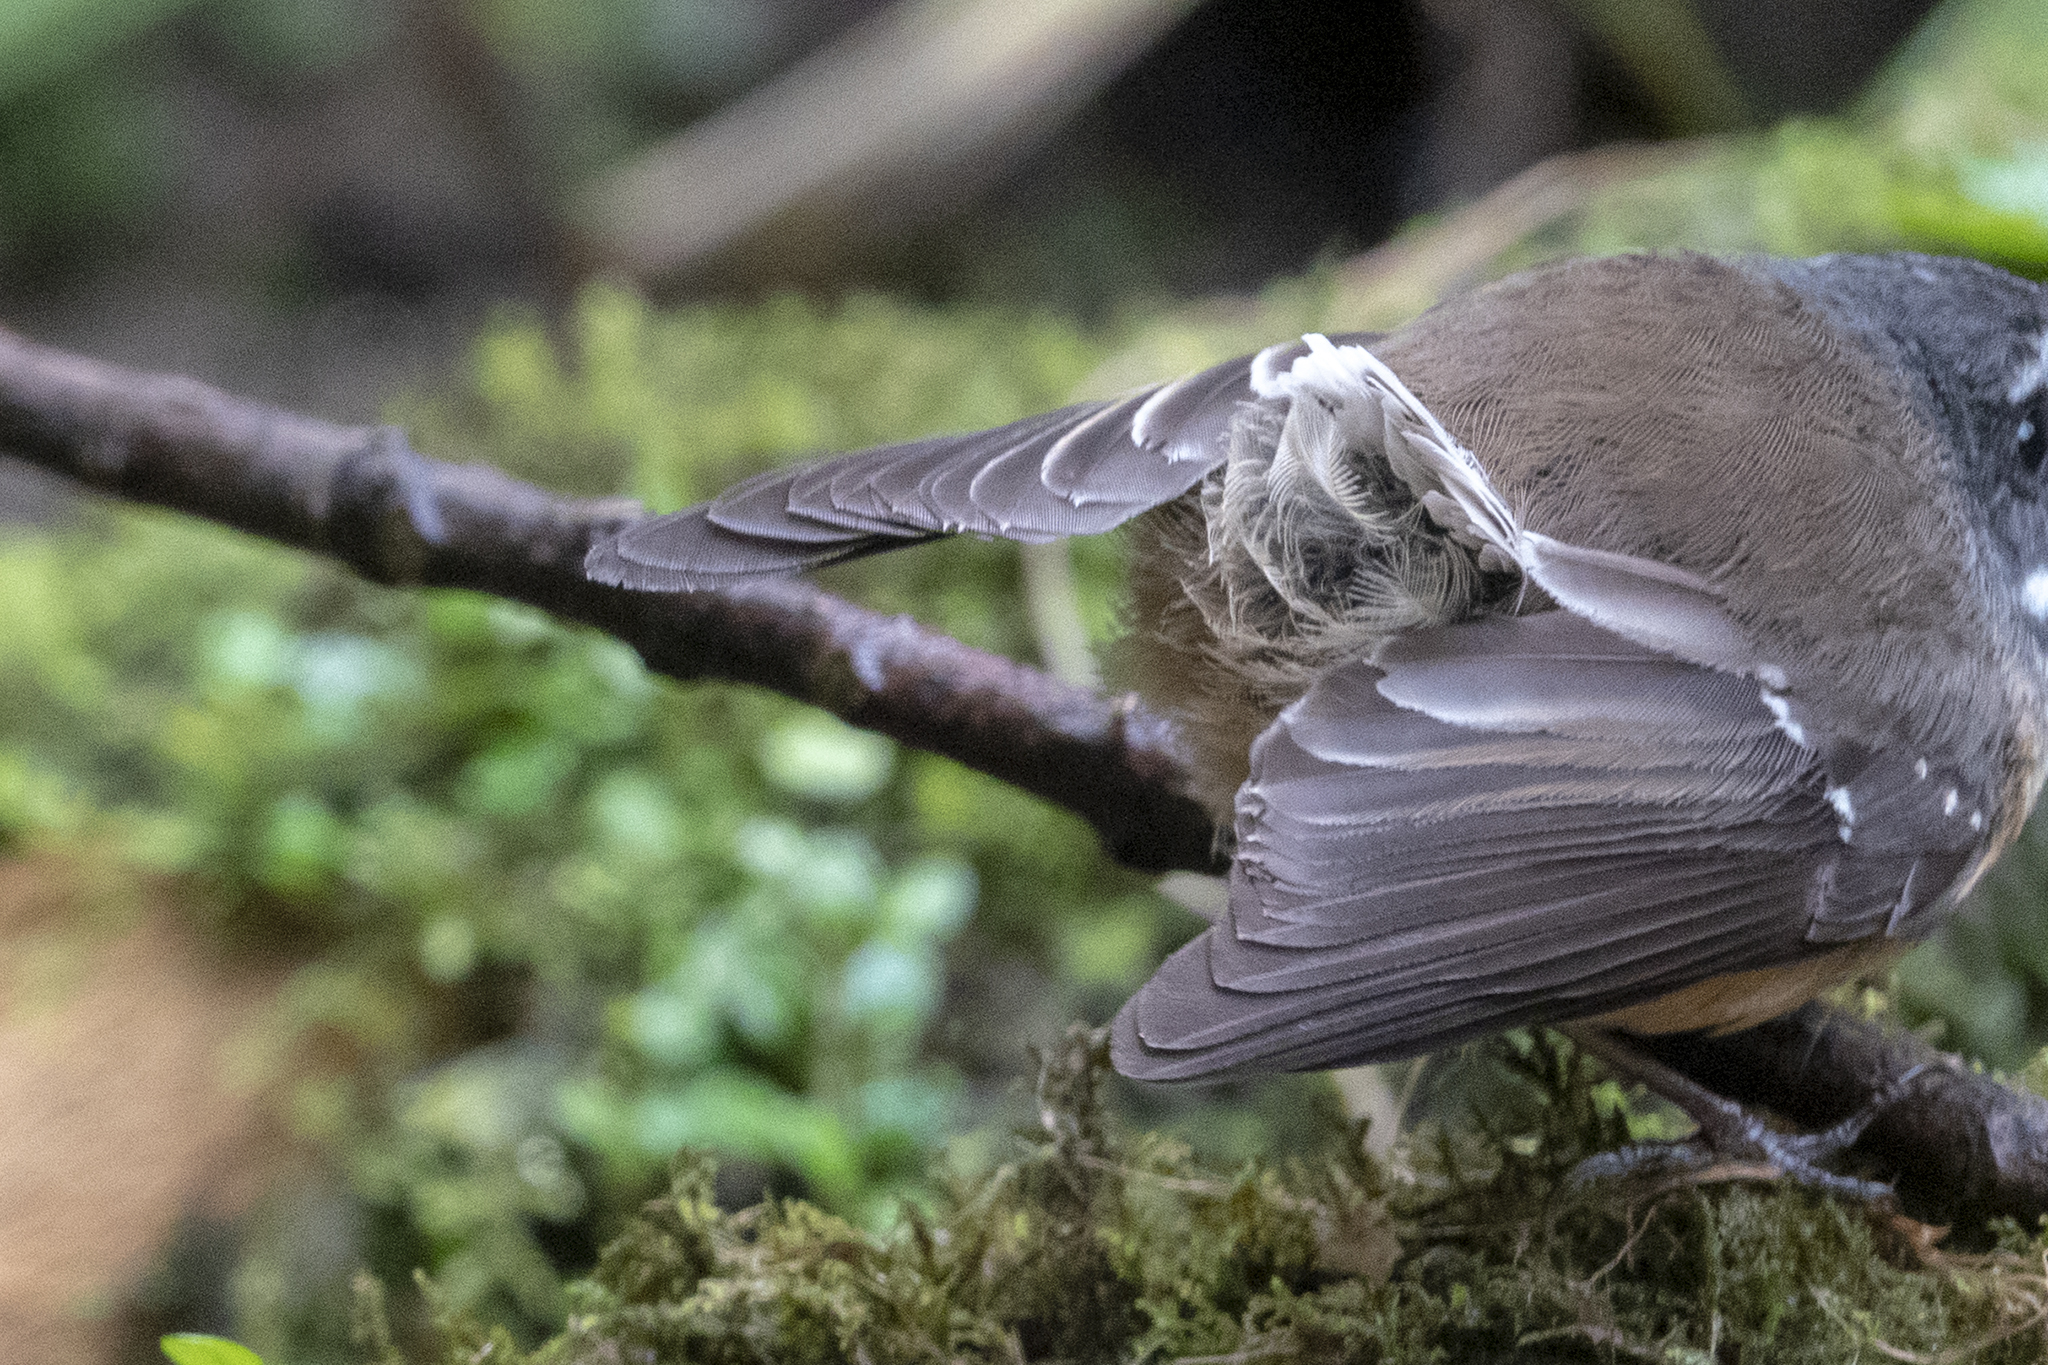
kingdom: Animalia
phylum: Chordata
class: Aves
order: Passeriformes
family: Rhipiduridae
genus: Rhipidura
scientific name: Rhipidura fuliginosa
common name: New zealand fantail
